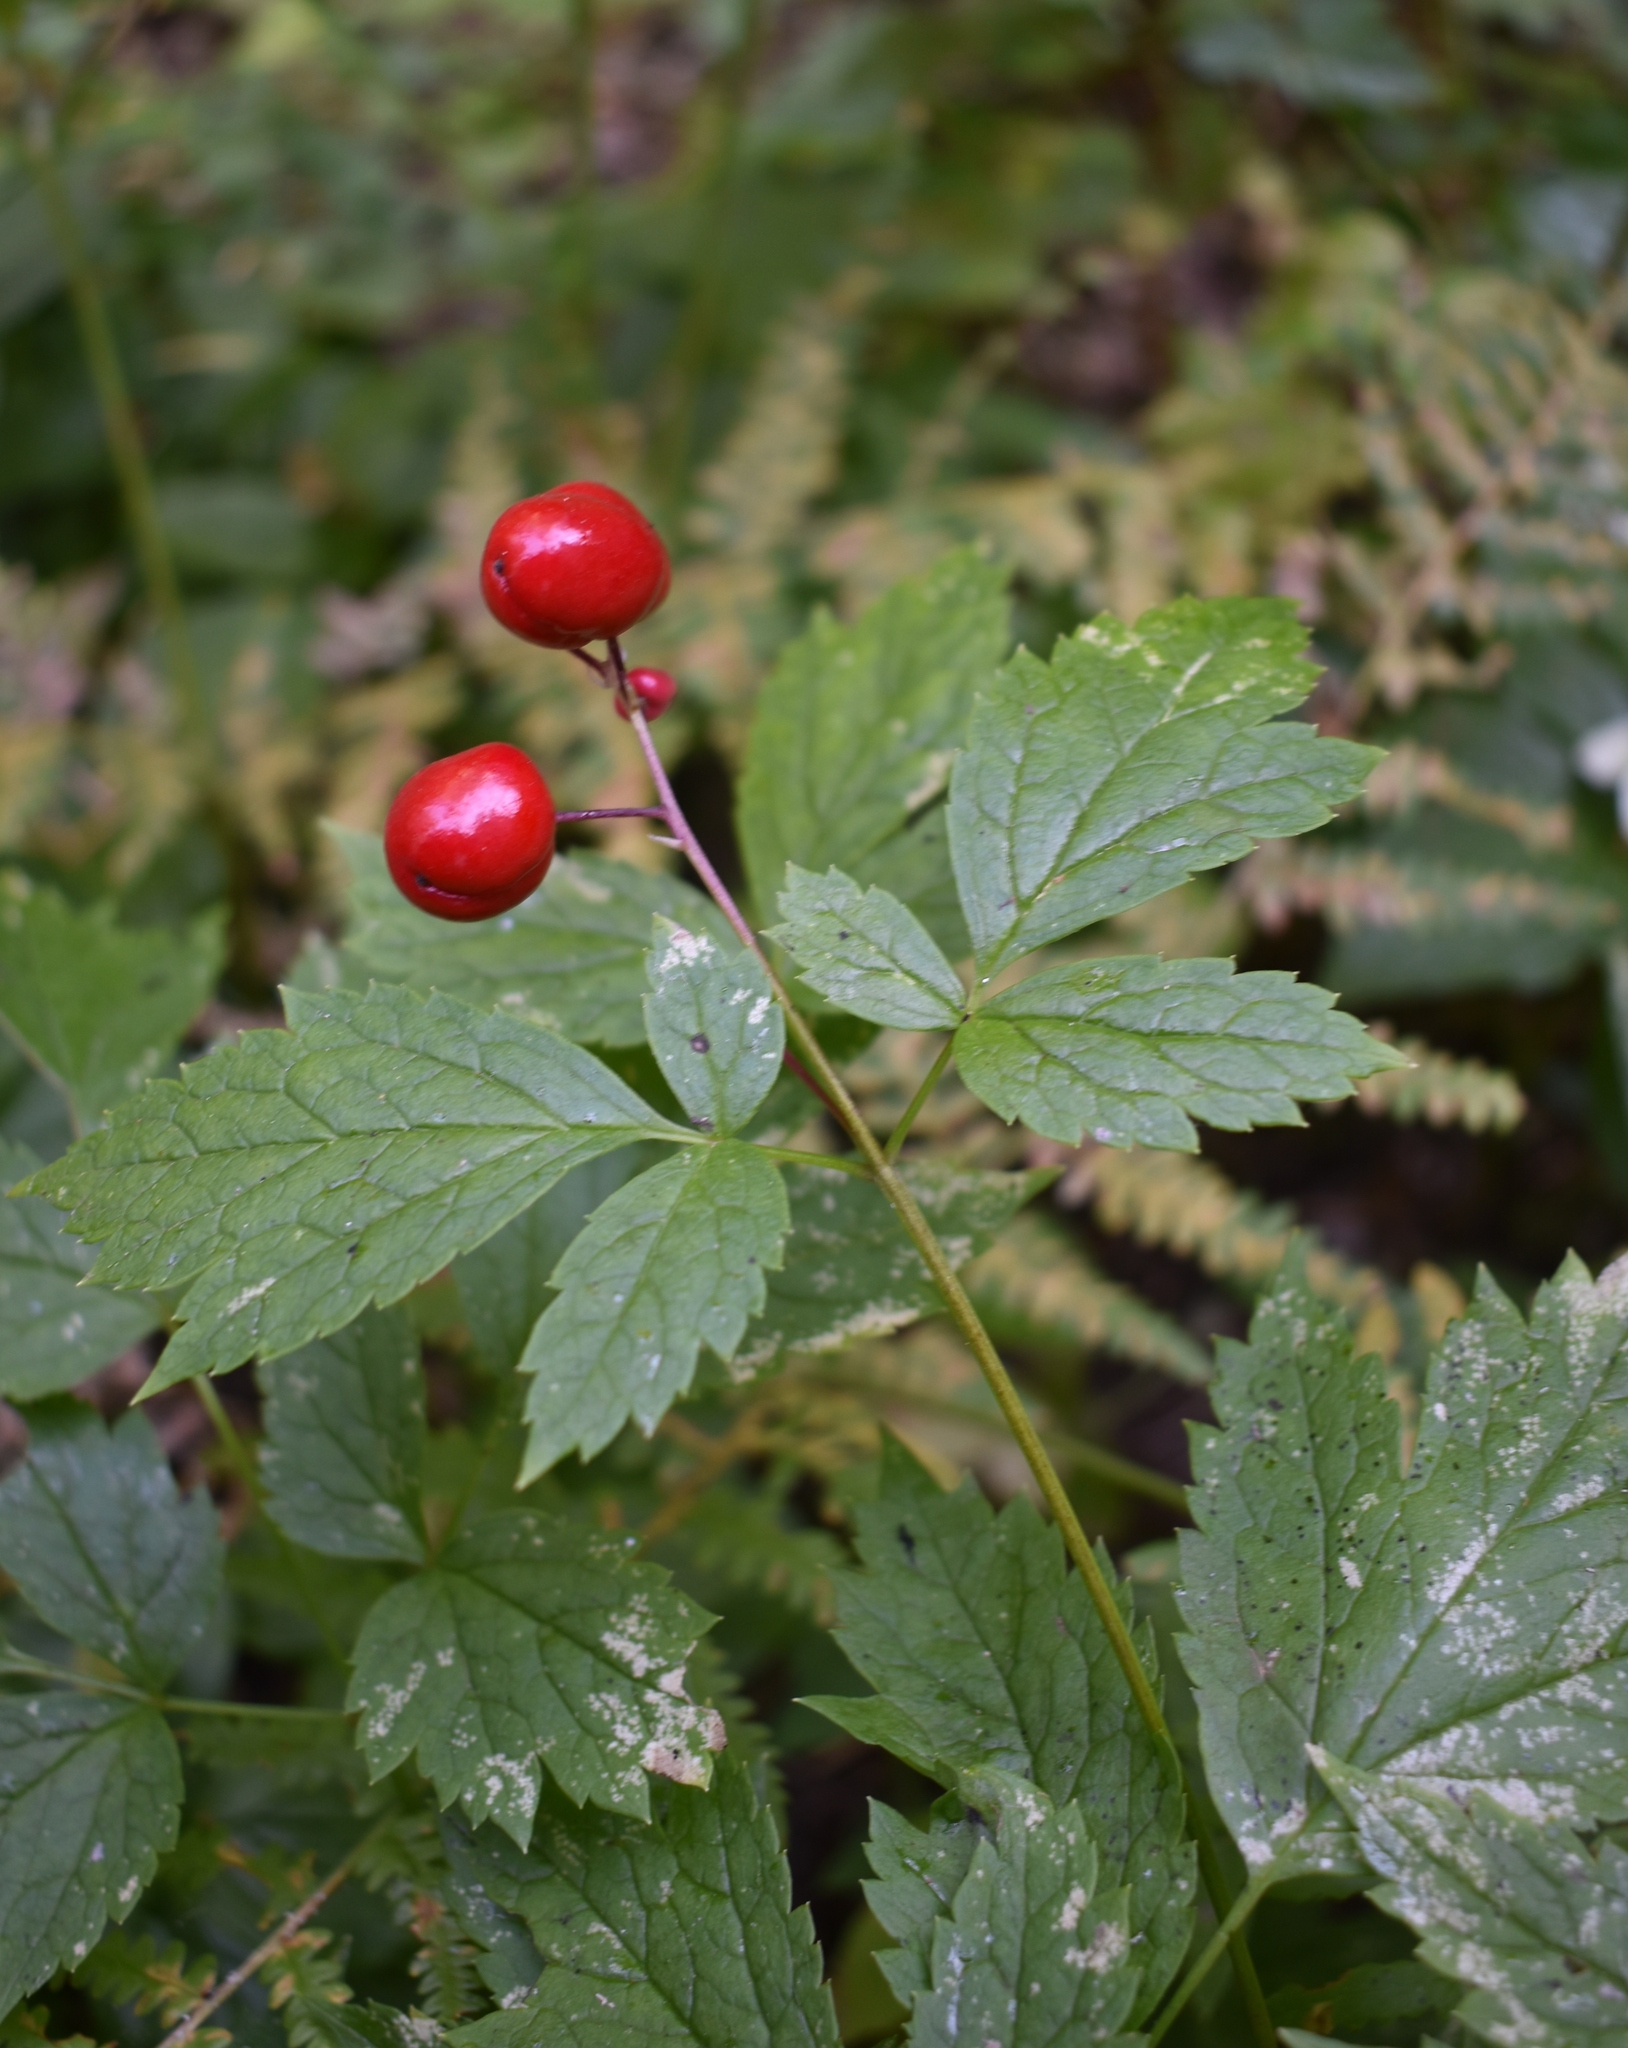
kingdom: Plantae
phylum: Tracheophyta
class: Magnoliopsida
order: Ranunculales
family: Ranunculaceae
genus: Actaea
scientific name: Actaea rubra
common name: Red baneberry
